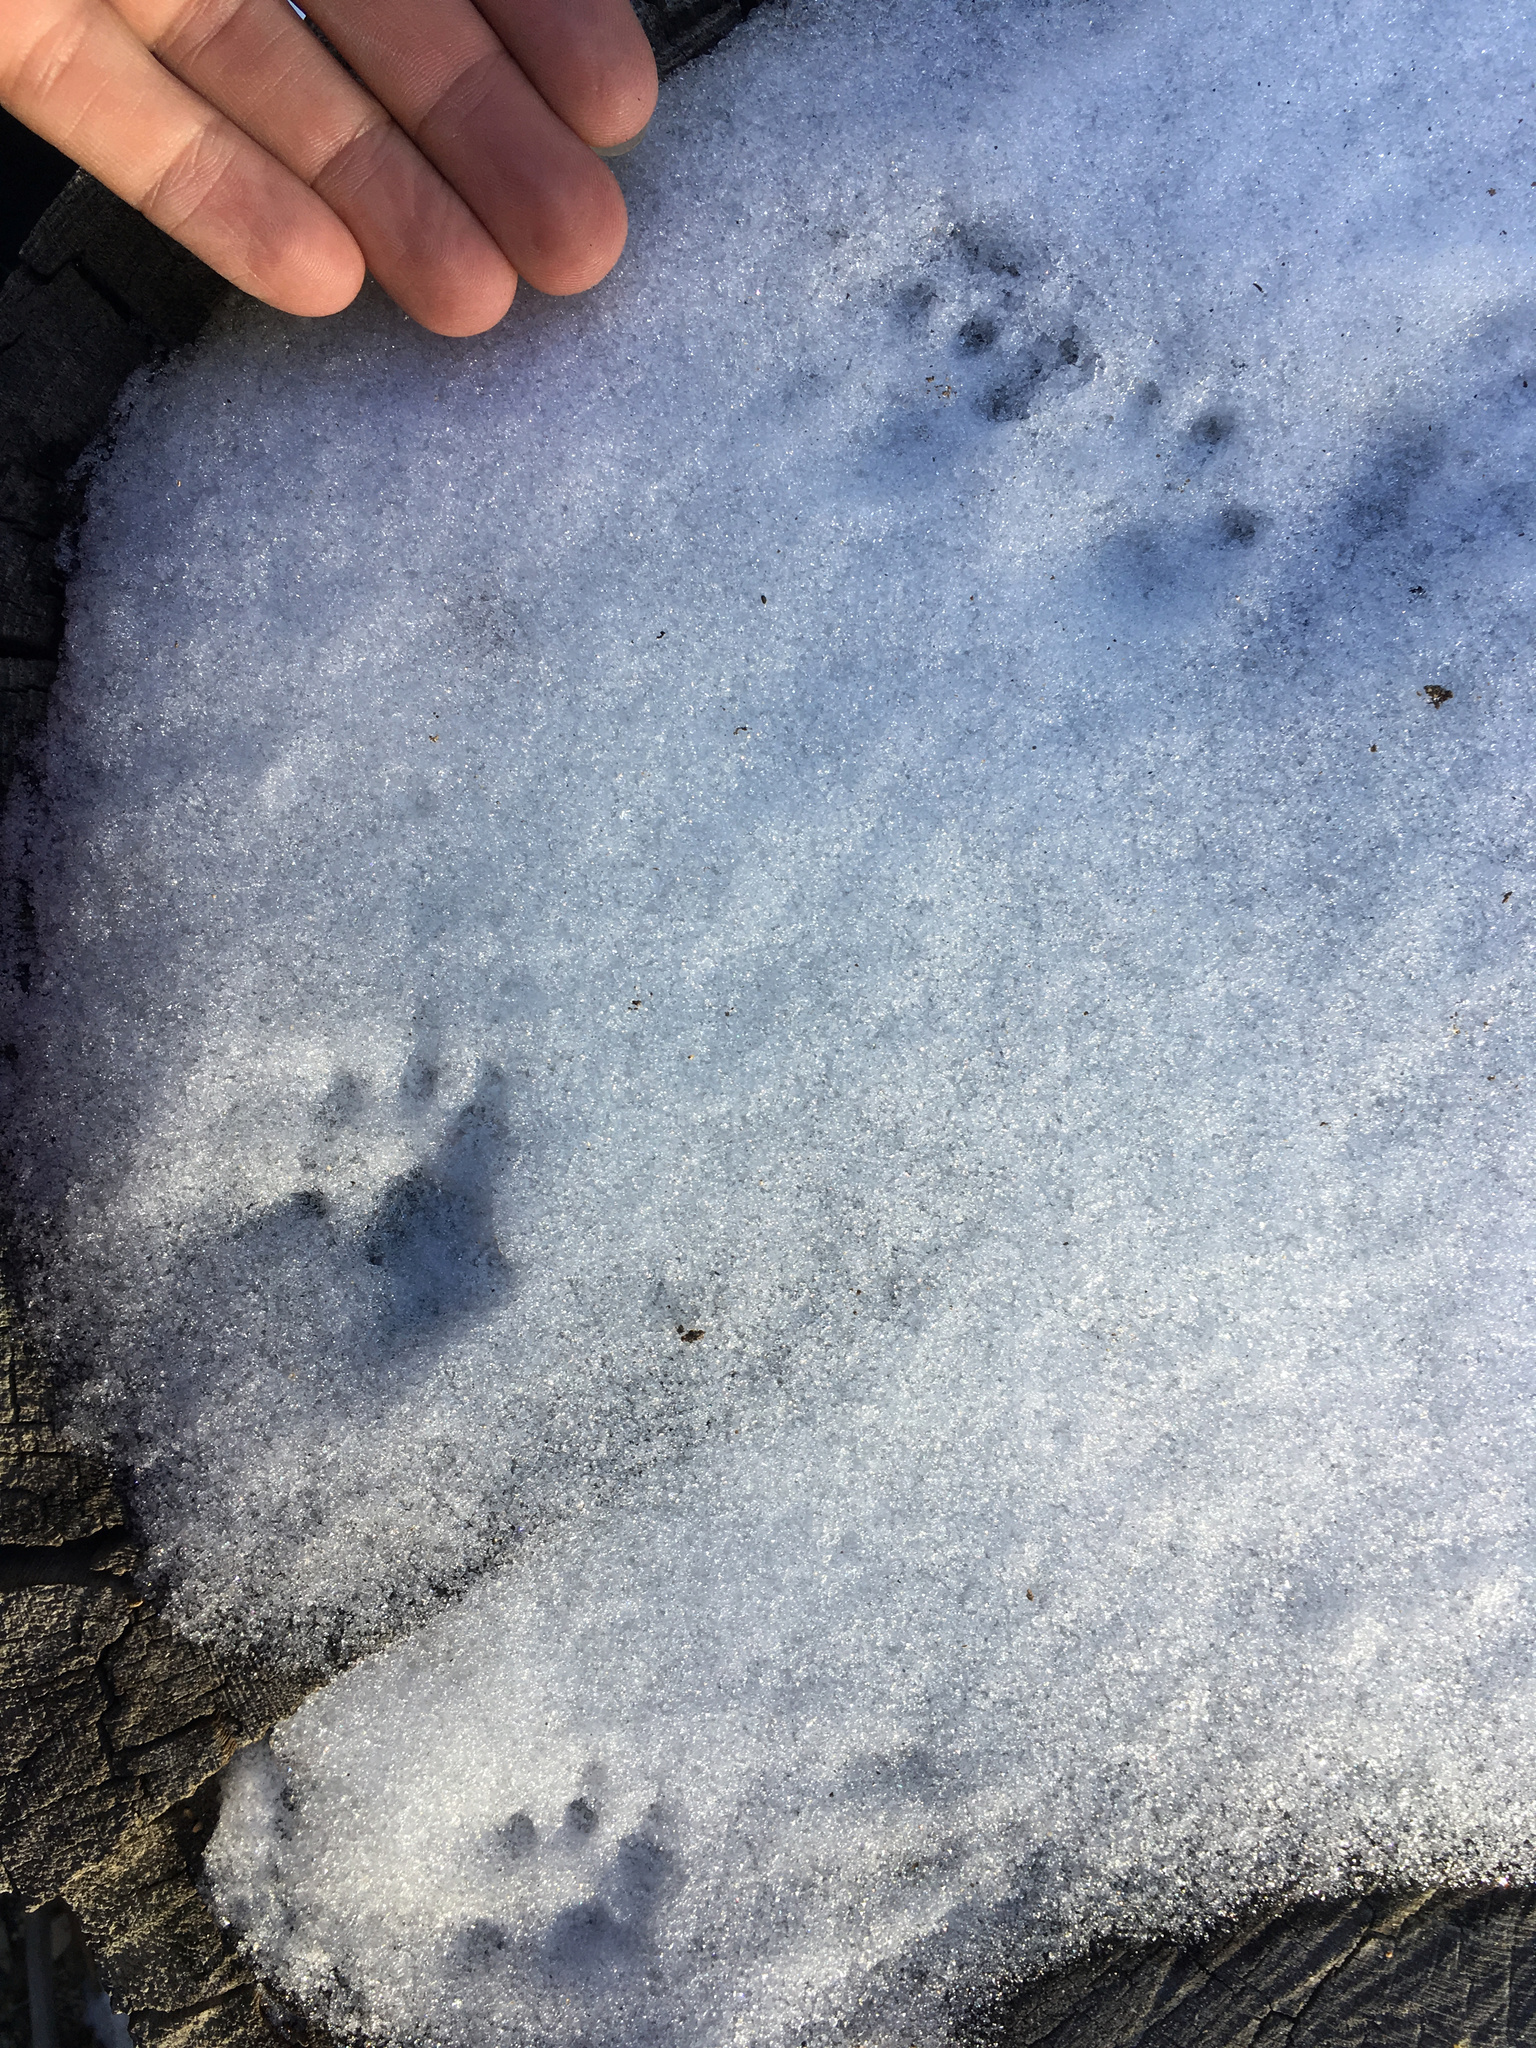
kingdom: Animalia
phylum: Chordata
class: Mammalia
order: Rodentia
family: Sciuridae
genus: Sciurus
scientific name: Sciurus griseus
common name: Western gray squirrel
